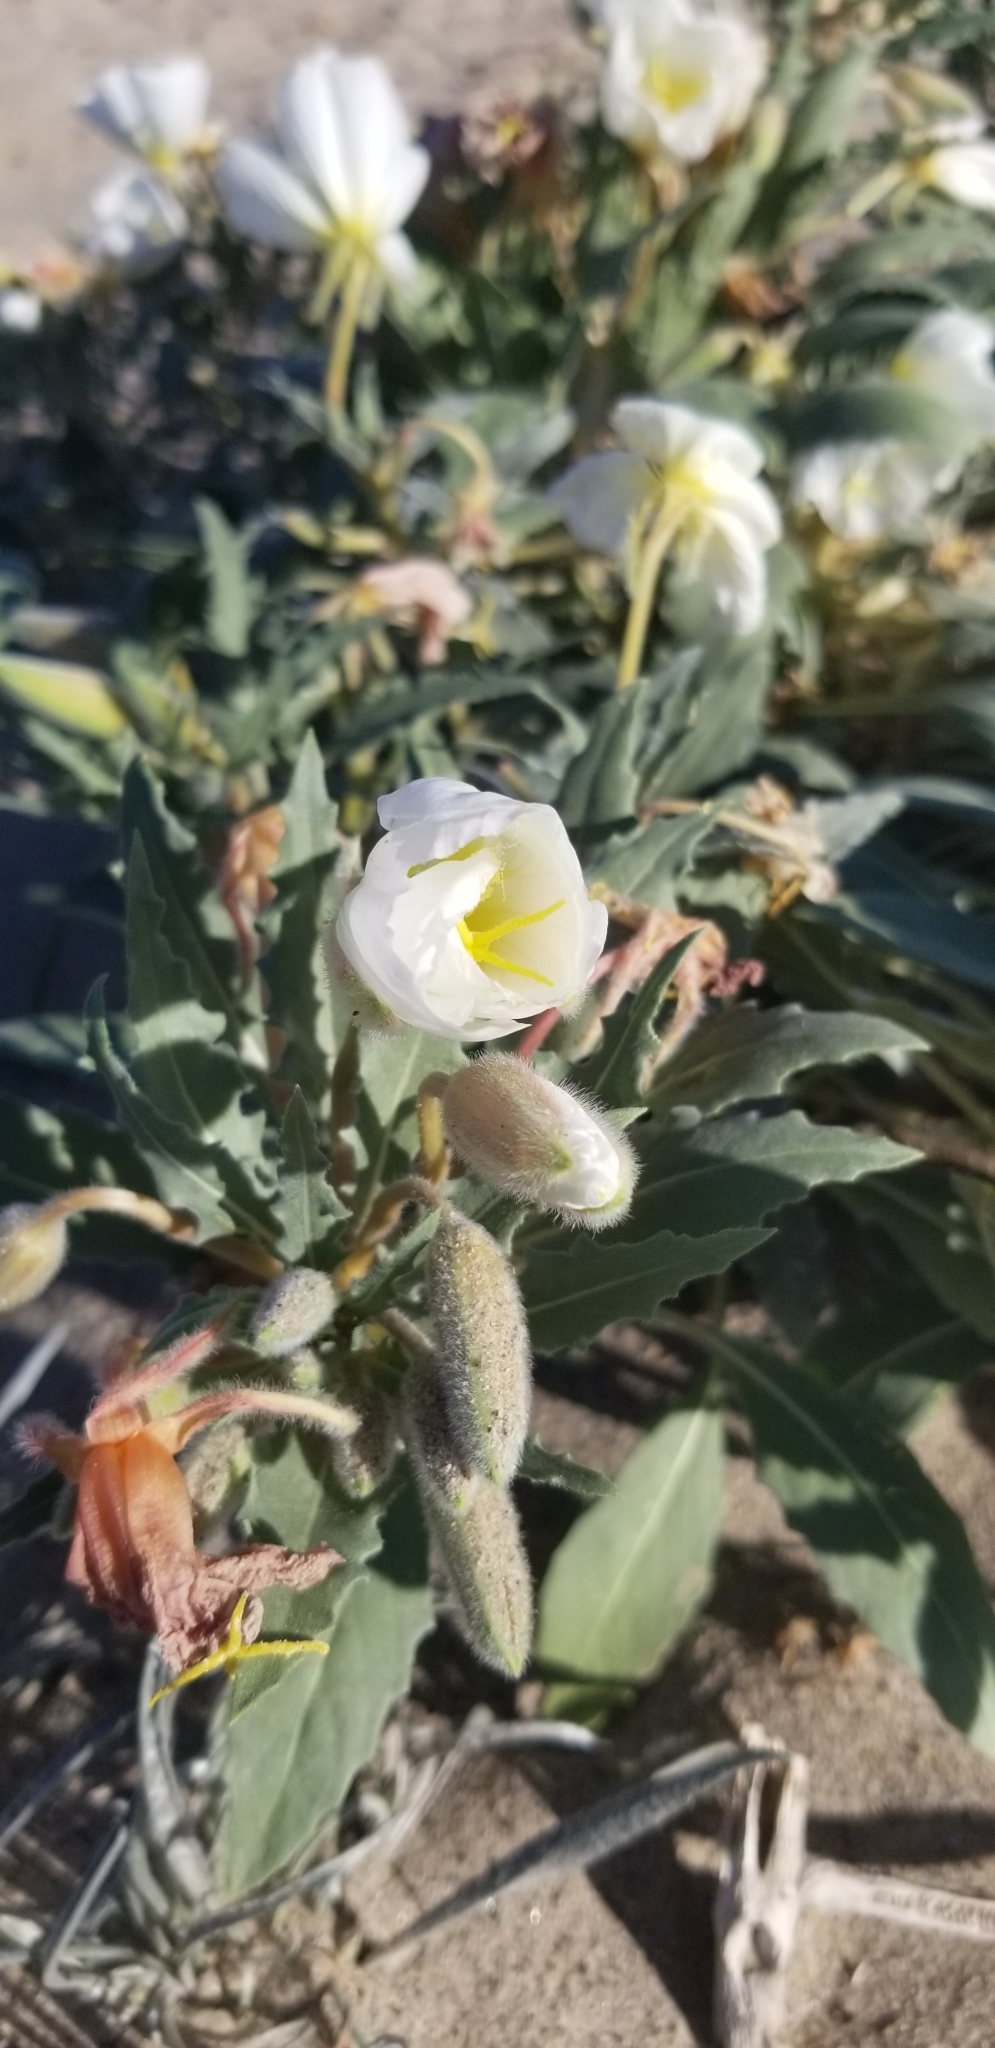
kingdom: Plantae
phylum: Tracheophyta
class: Magnoliopsida
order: Myrtales
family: Onagraceae
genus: Oenothera
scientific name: Oenothera deltoides
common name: Basket evening-primrose
